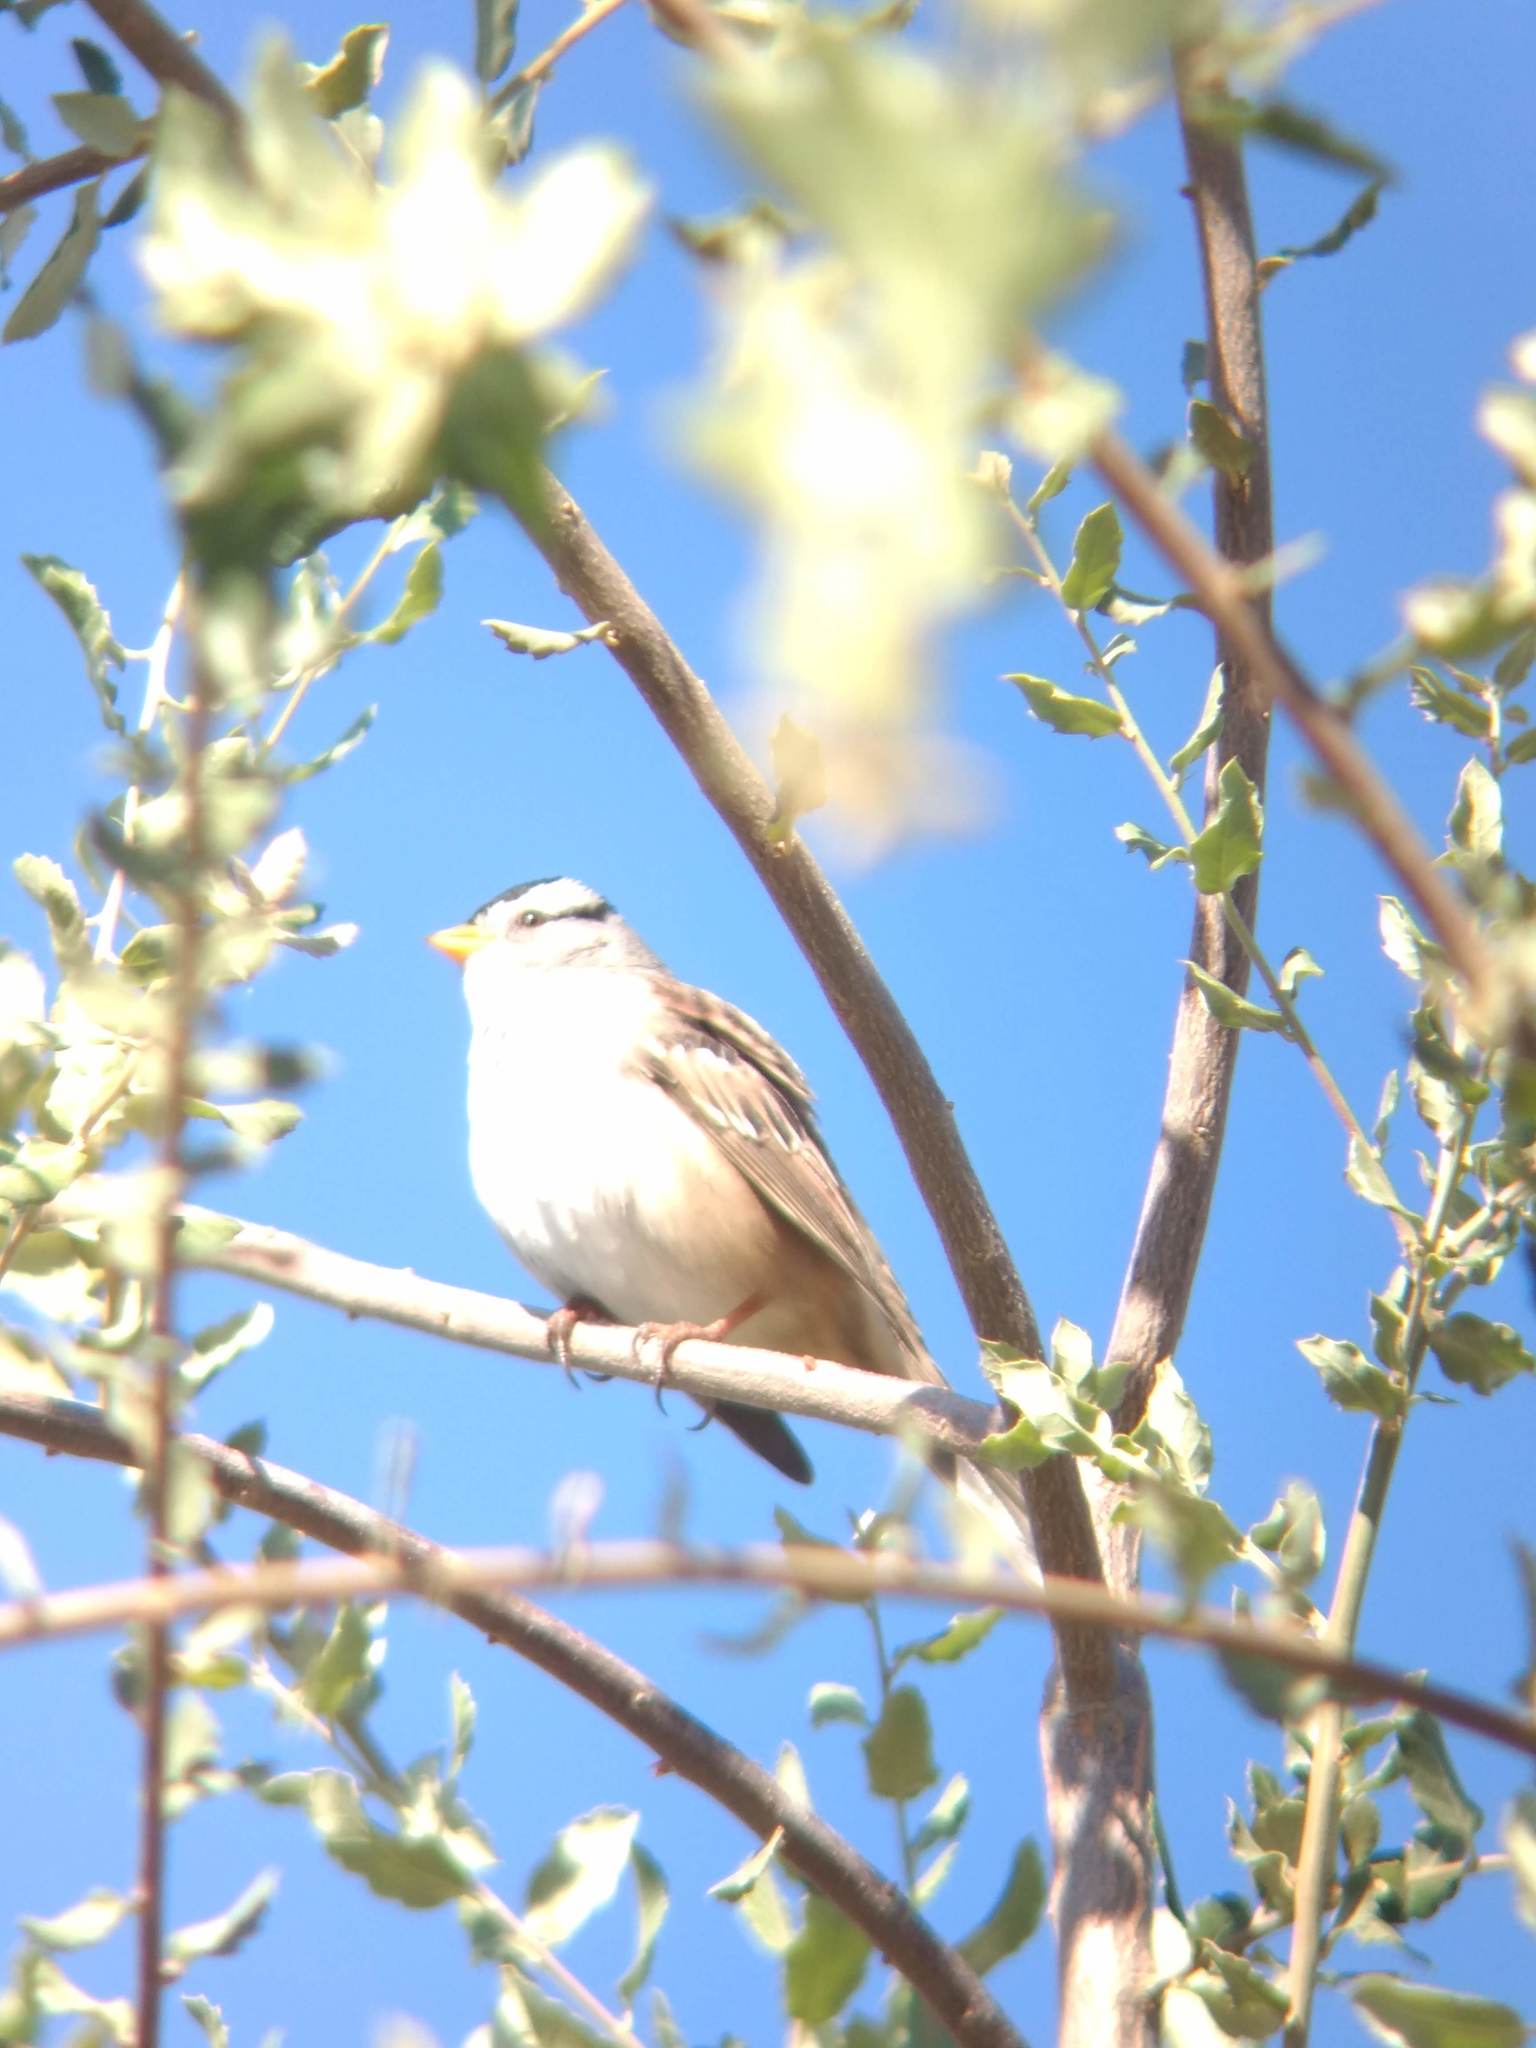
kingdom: Animalia
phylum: Chordata
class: Aves
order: Passeriformes
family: Passerellidae
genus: Zonotrichia
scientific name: Zonotrichia leucophrys
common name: White-crowned sparrow
